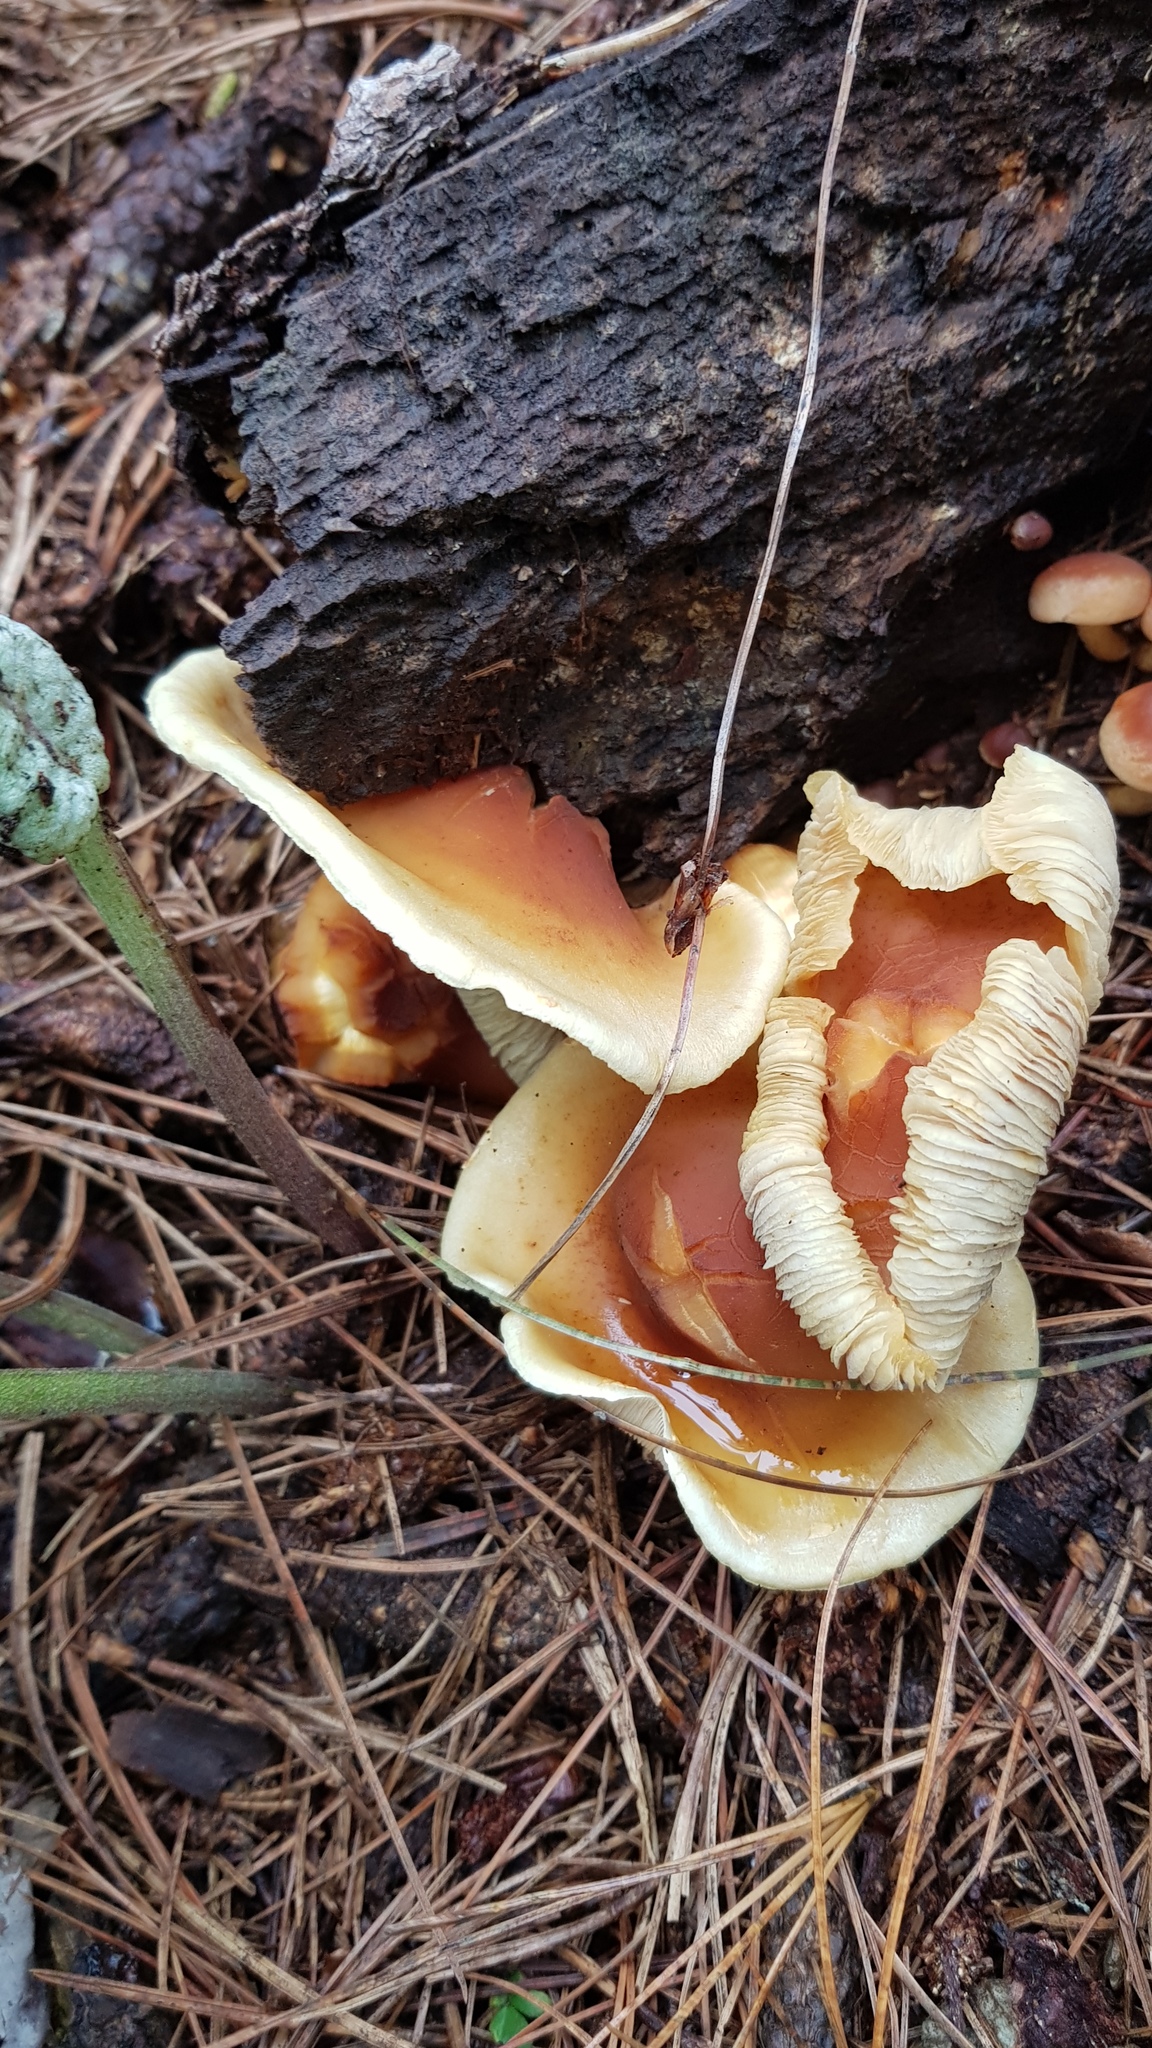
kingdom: Fungi
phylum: Basidiomycota
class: Agaricomycetes
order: Agaricales
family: Strophariaceae
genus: Hypholoma
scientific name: Hypholoma lateritium
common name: Brick caps
